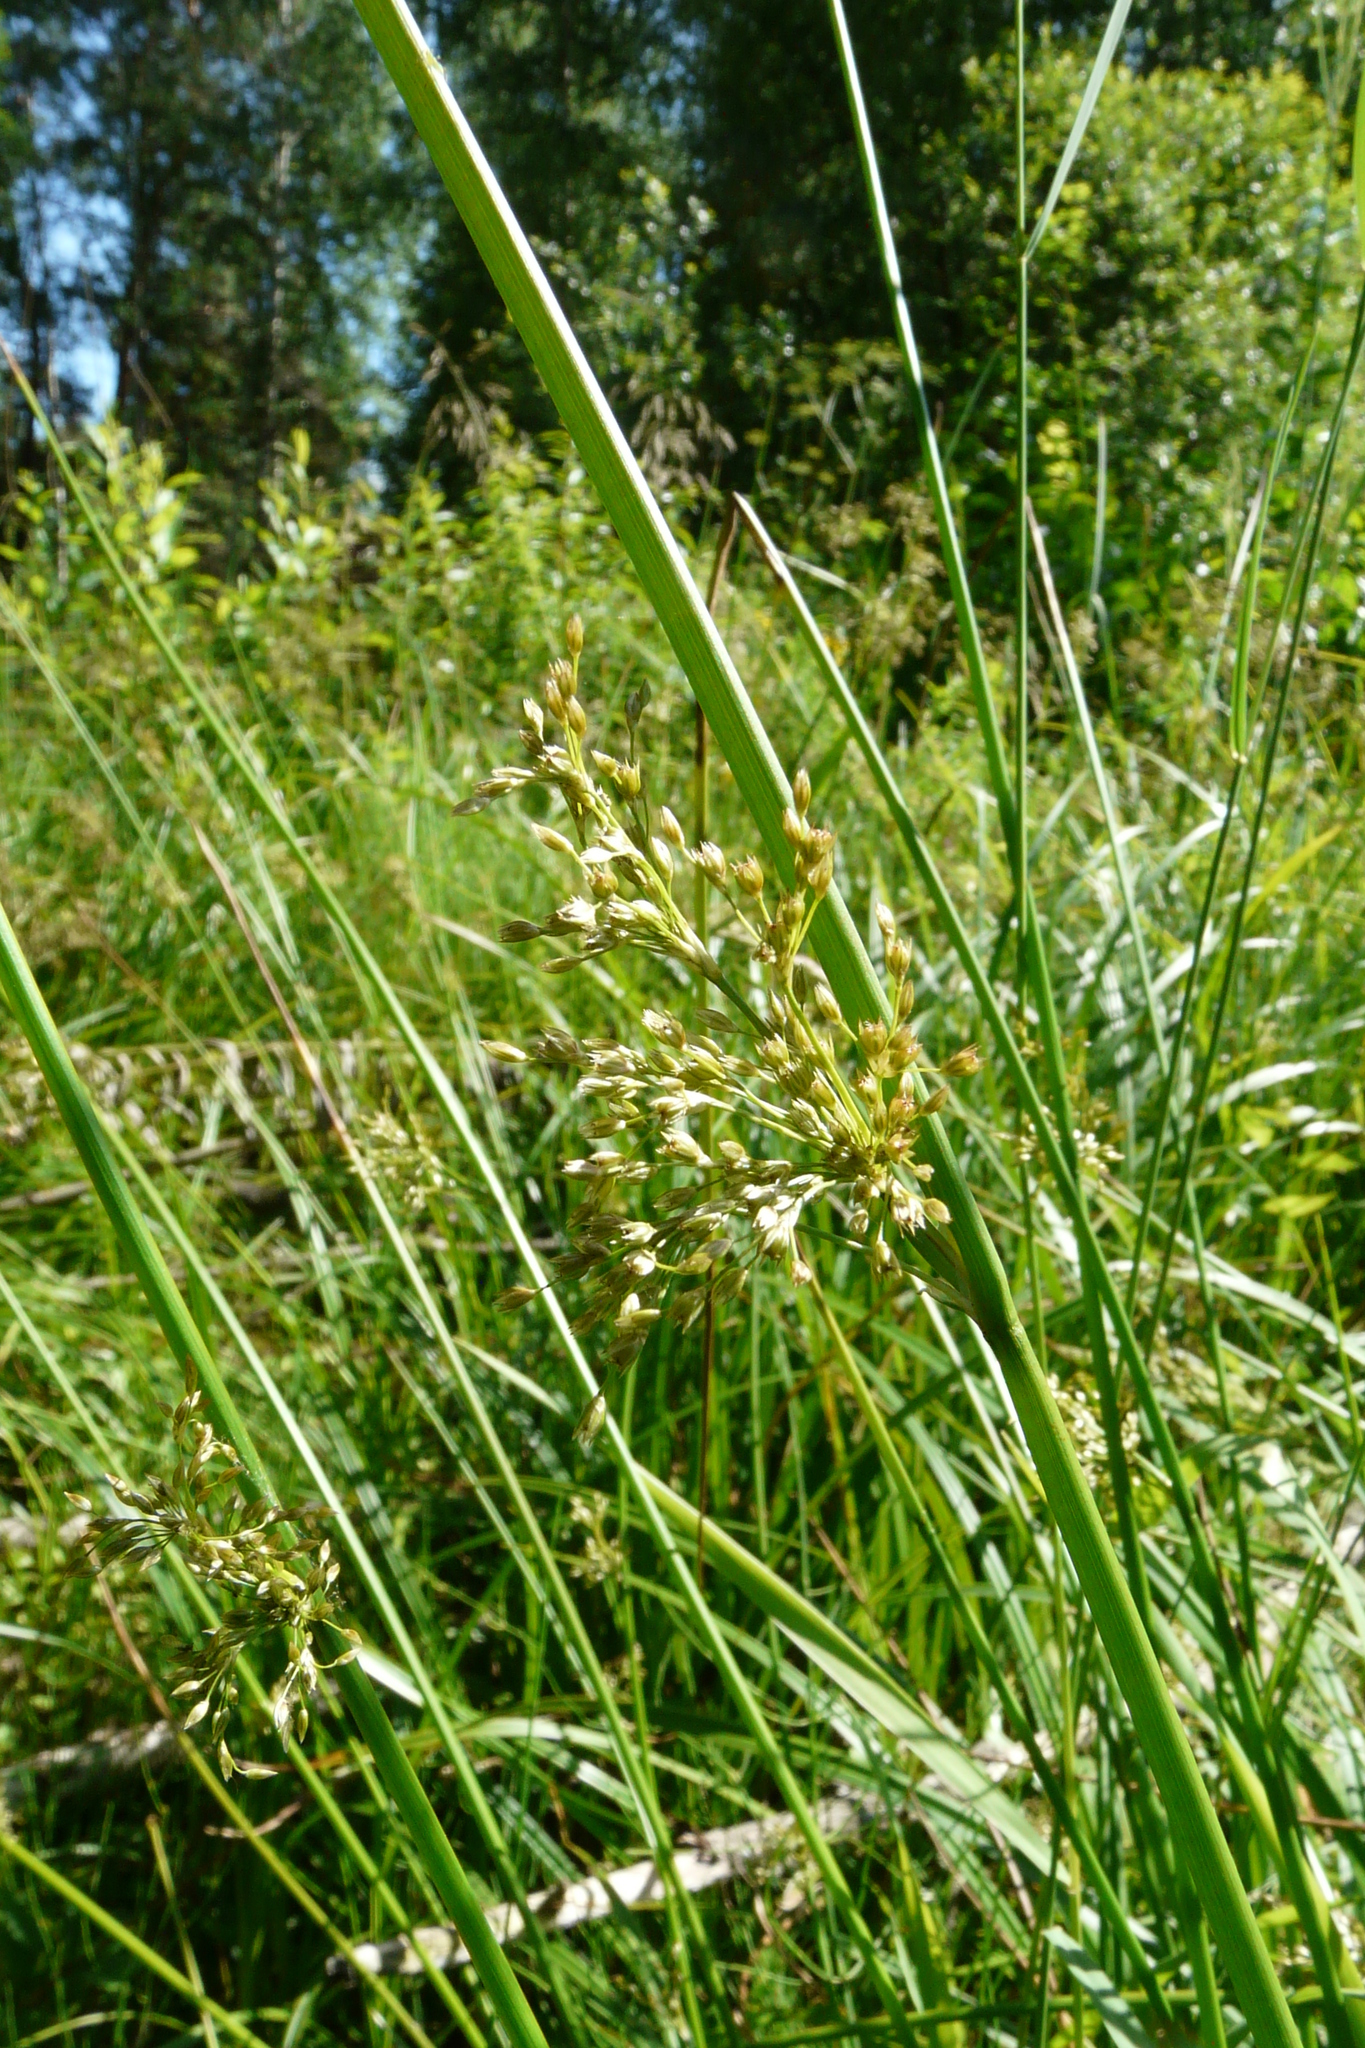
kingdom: Plantae
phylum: Tracheophyta
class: Liliopsida
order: Poales
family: Juncaceae
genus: Juncus
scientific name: Juncus effusus
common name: Soft rush
